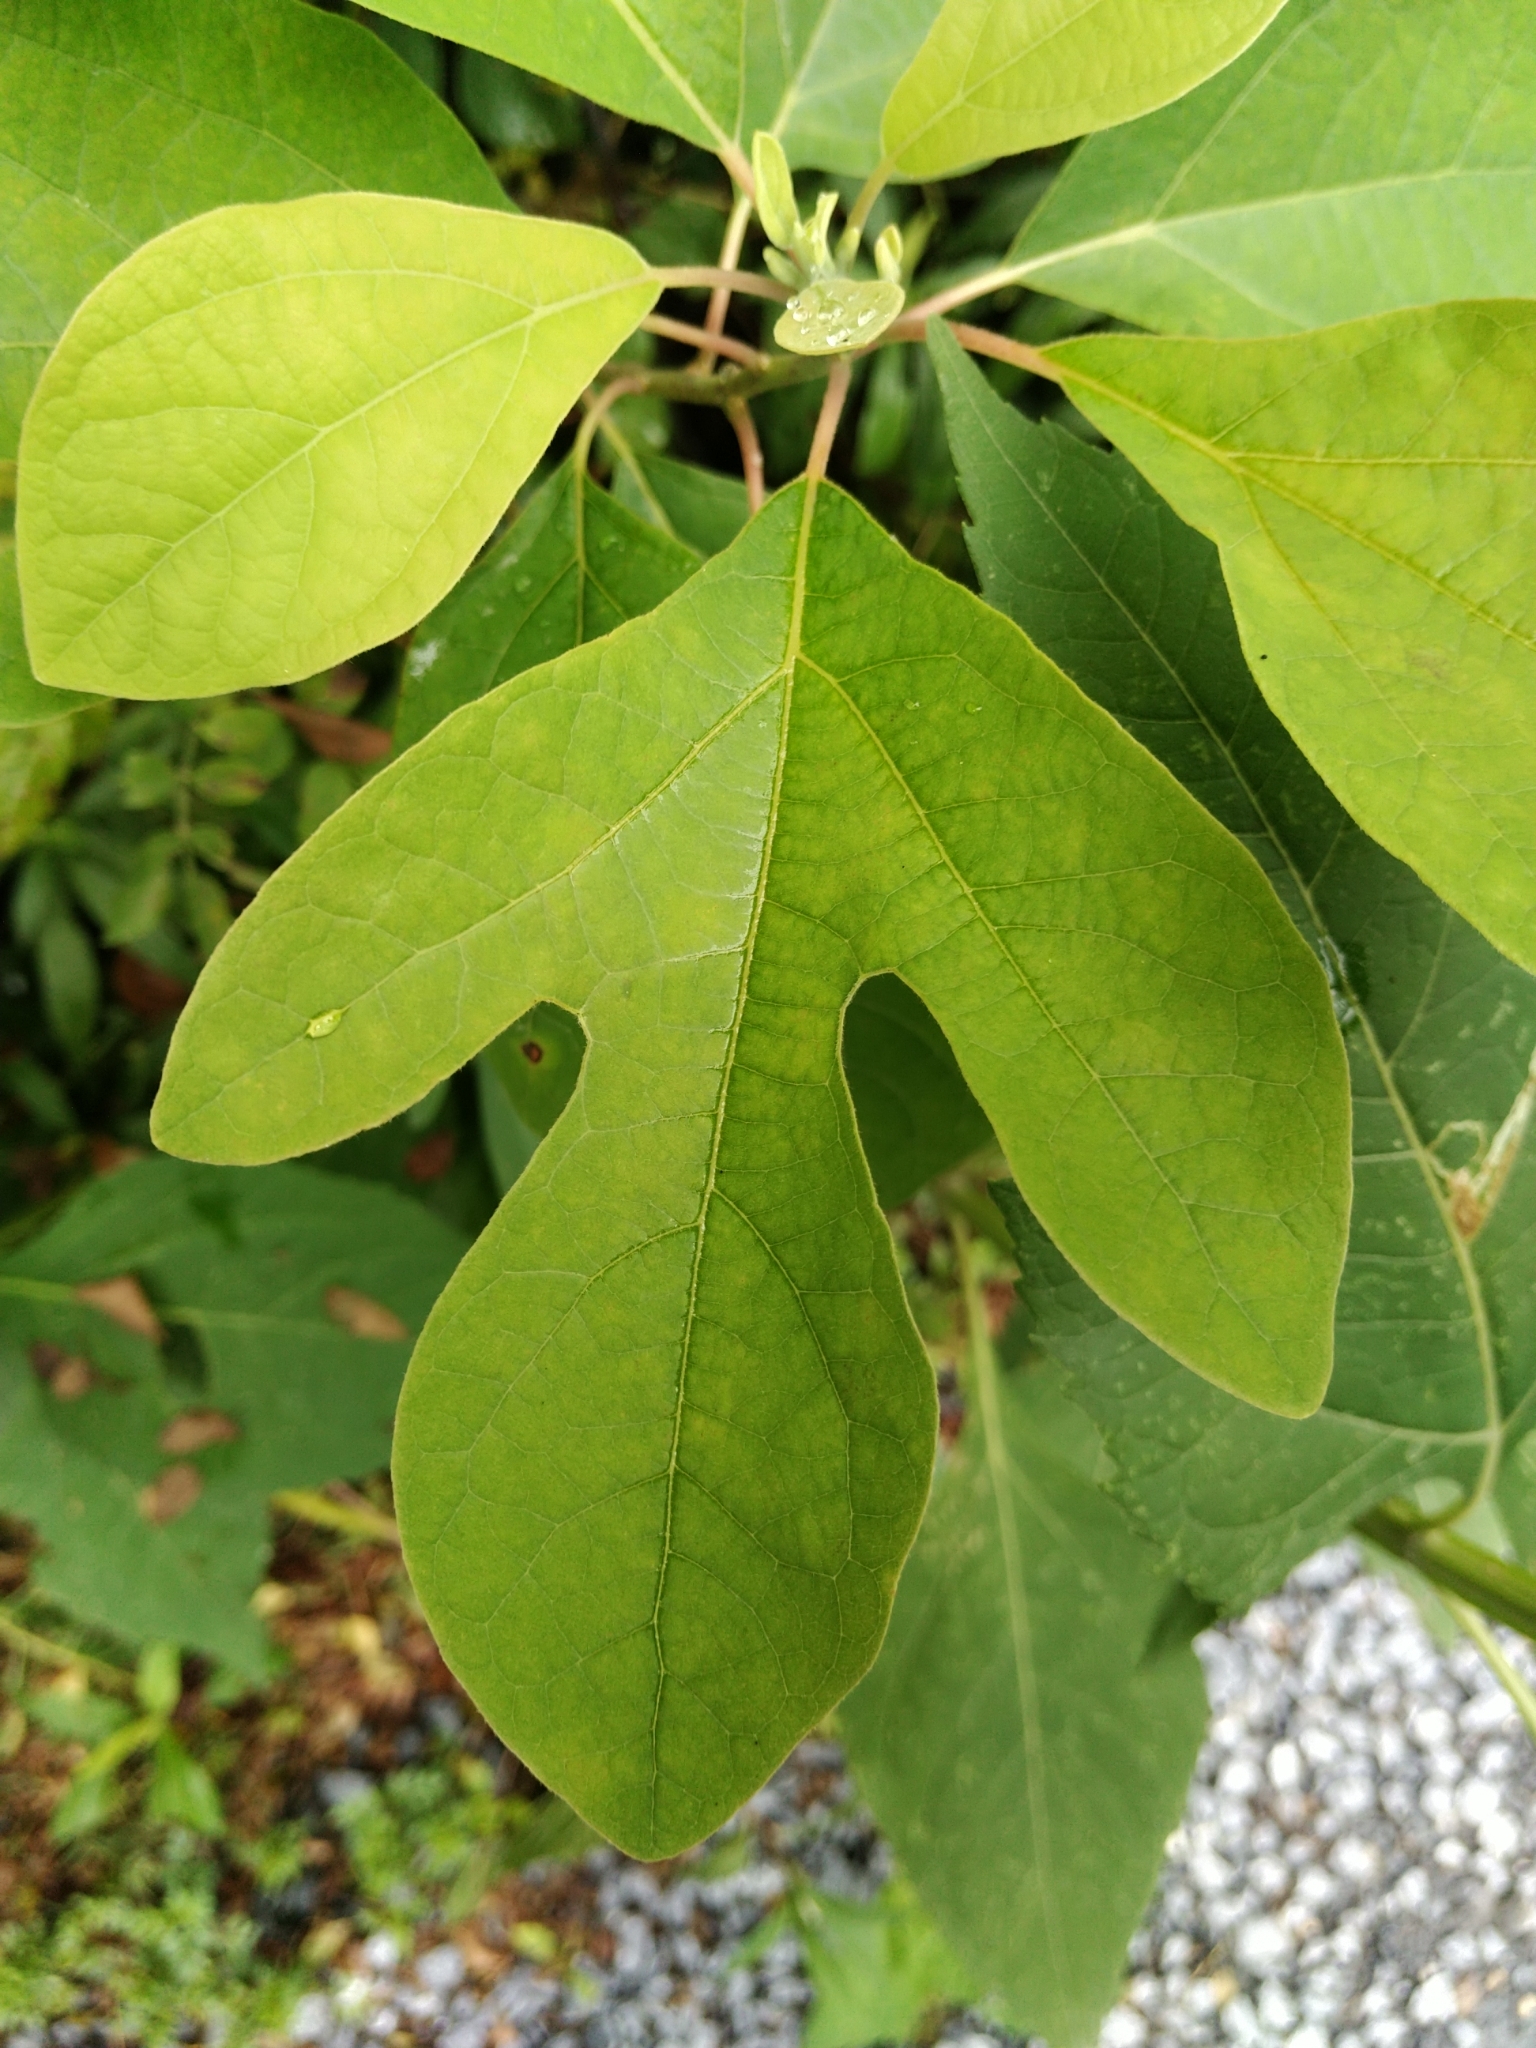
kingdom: Plantae
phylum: Tracheophyta
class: Magnoliopsida
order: Laurales
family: Lauraceae
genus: Sassafras
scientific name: Sassafras albidum
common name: Sassafras
